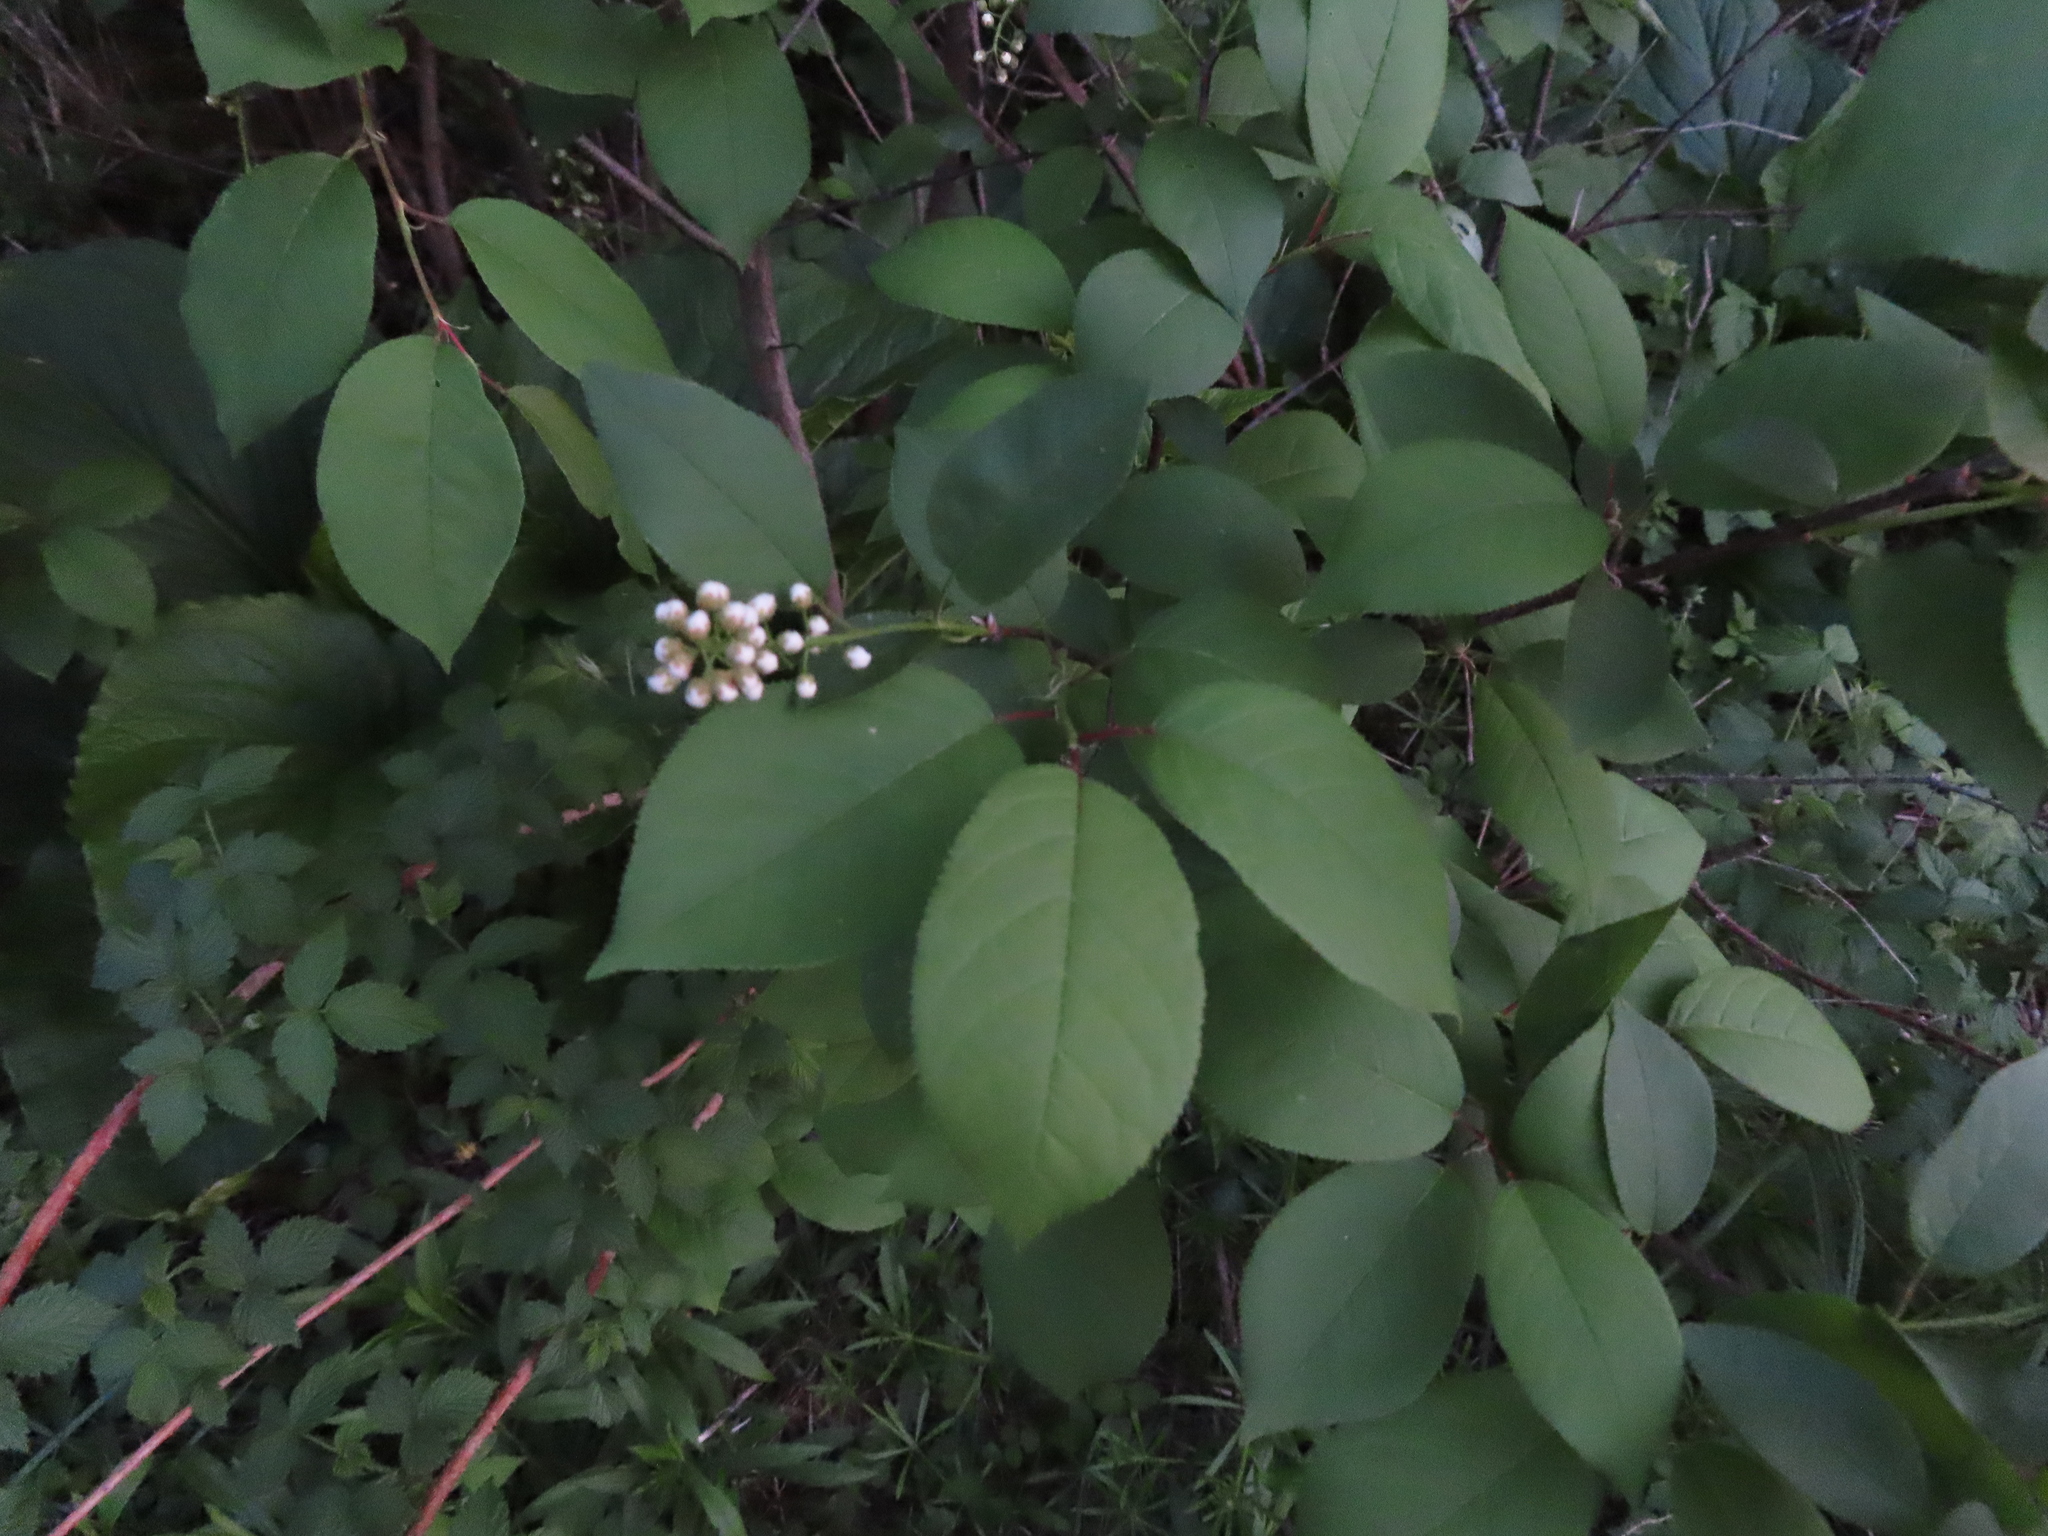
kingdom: Plantae
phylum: Tracheophyta
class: Magnoliopsida
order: Rosales
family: Rosaceae
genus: Prunus
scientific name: Prunus virginiana
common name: Chokecherry
